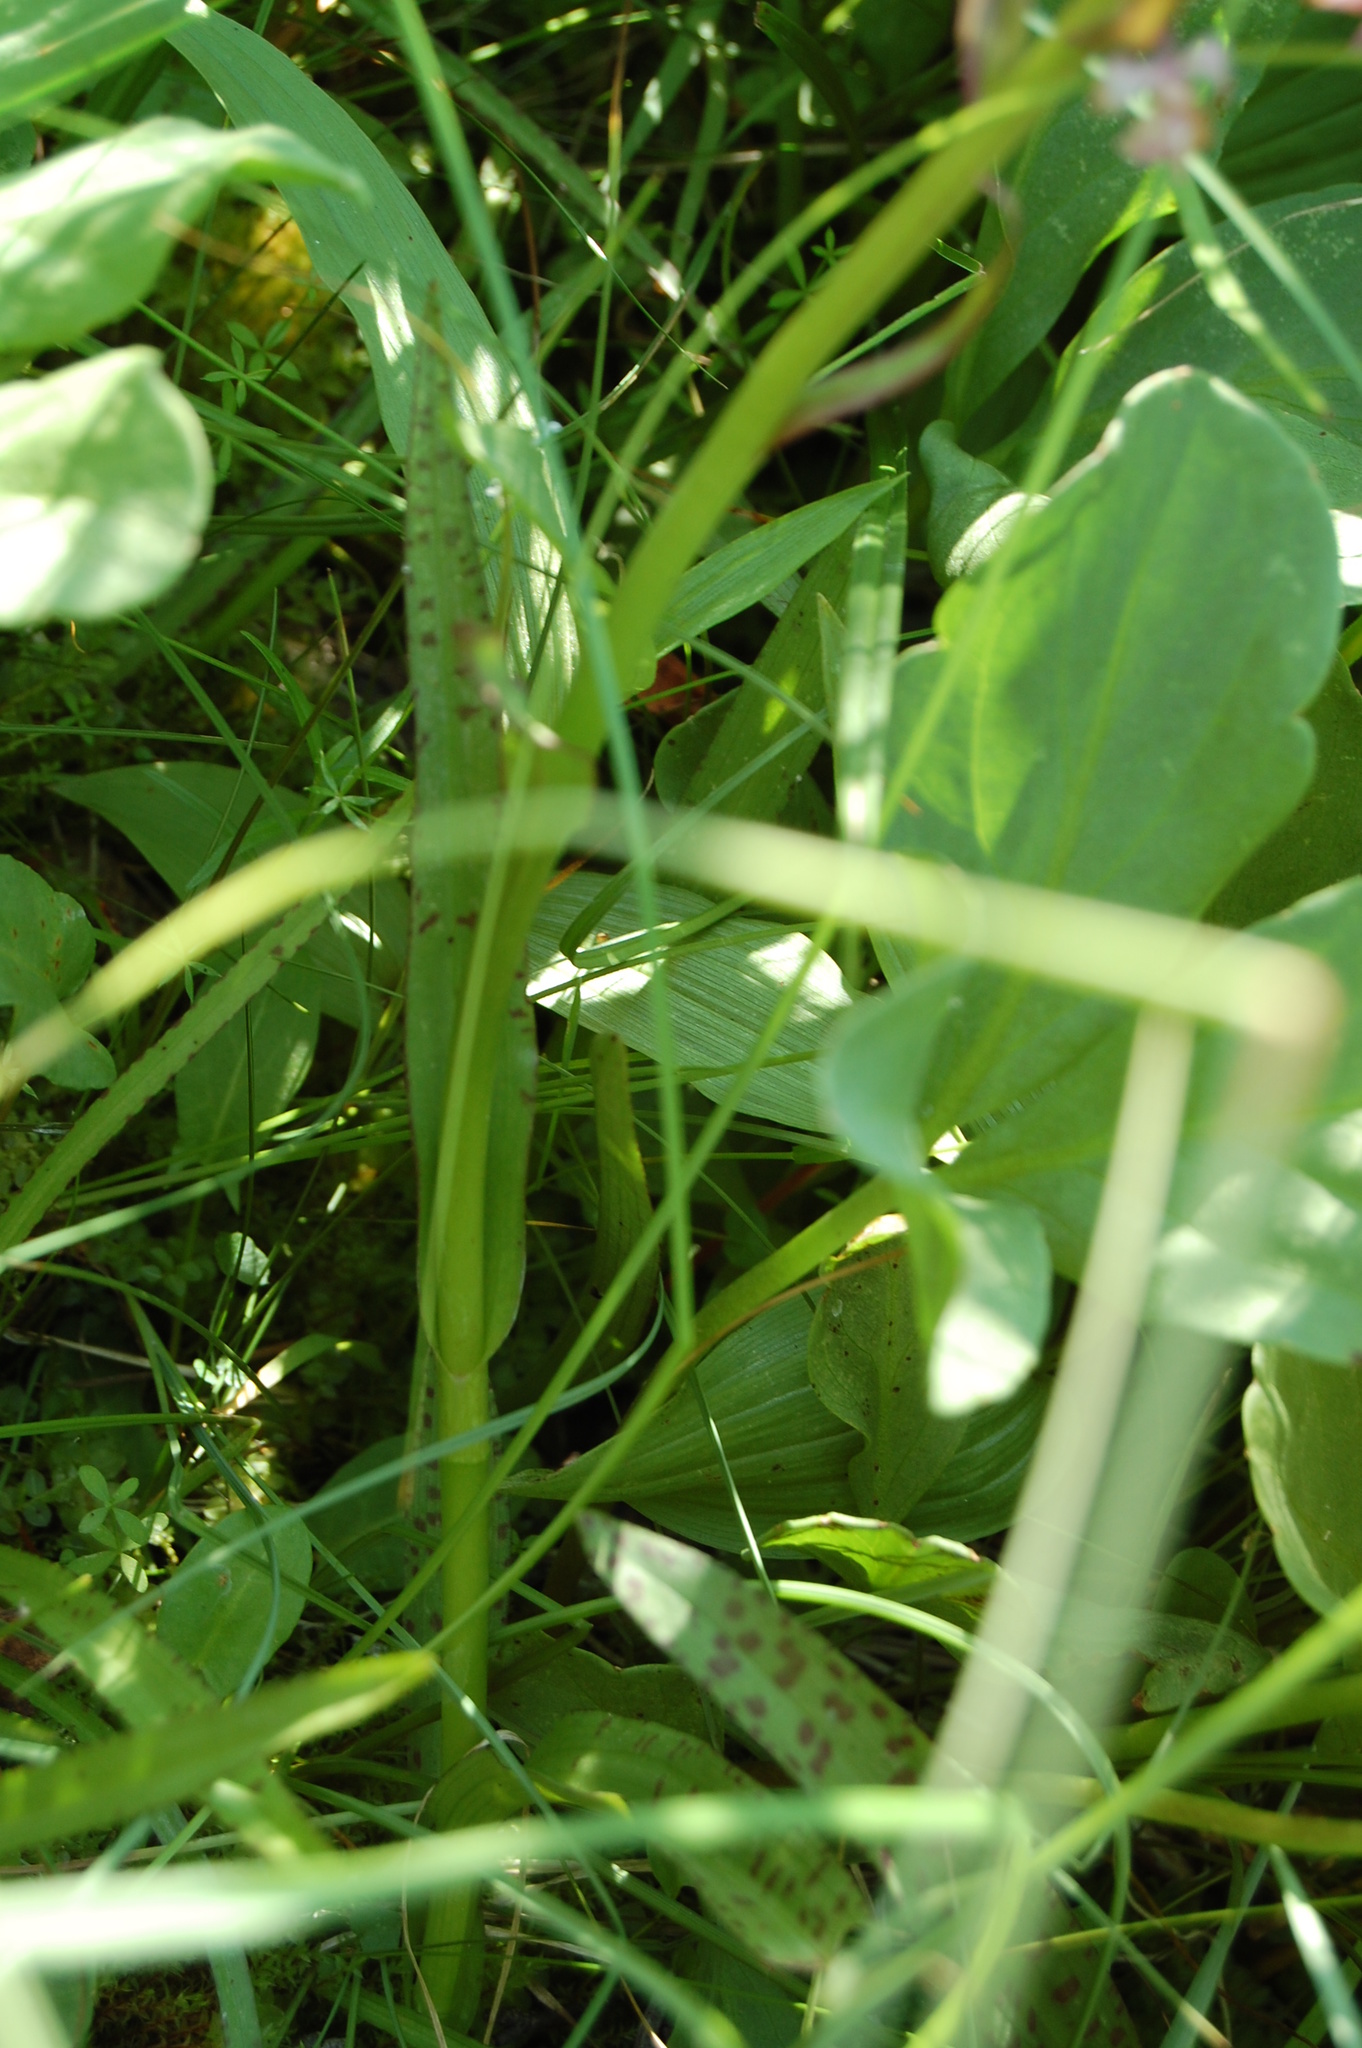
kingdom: Plantae
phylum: Tracheophyta
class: Liliopsida
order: Asparagales
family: Orchidaceae
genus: Dactylorhiza
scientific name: Dactylorhiza maculata
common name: Heath spotted-orchid
